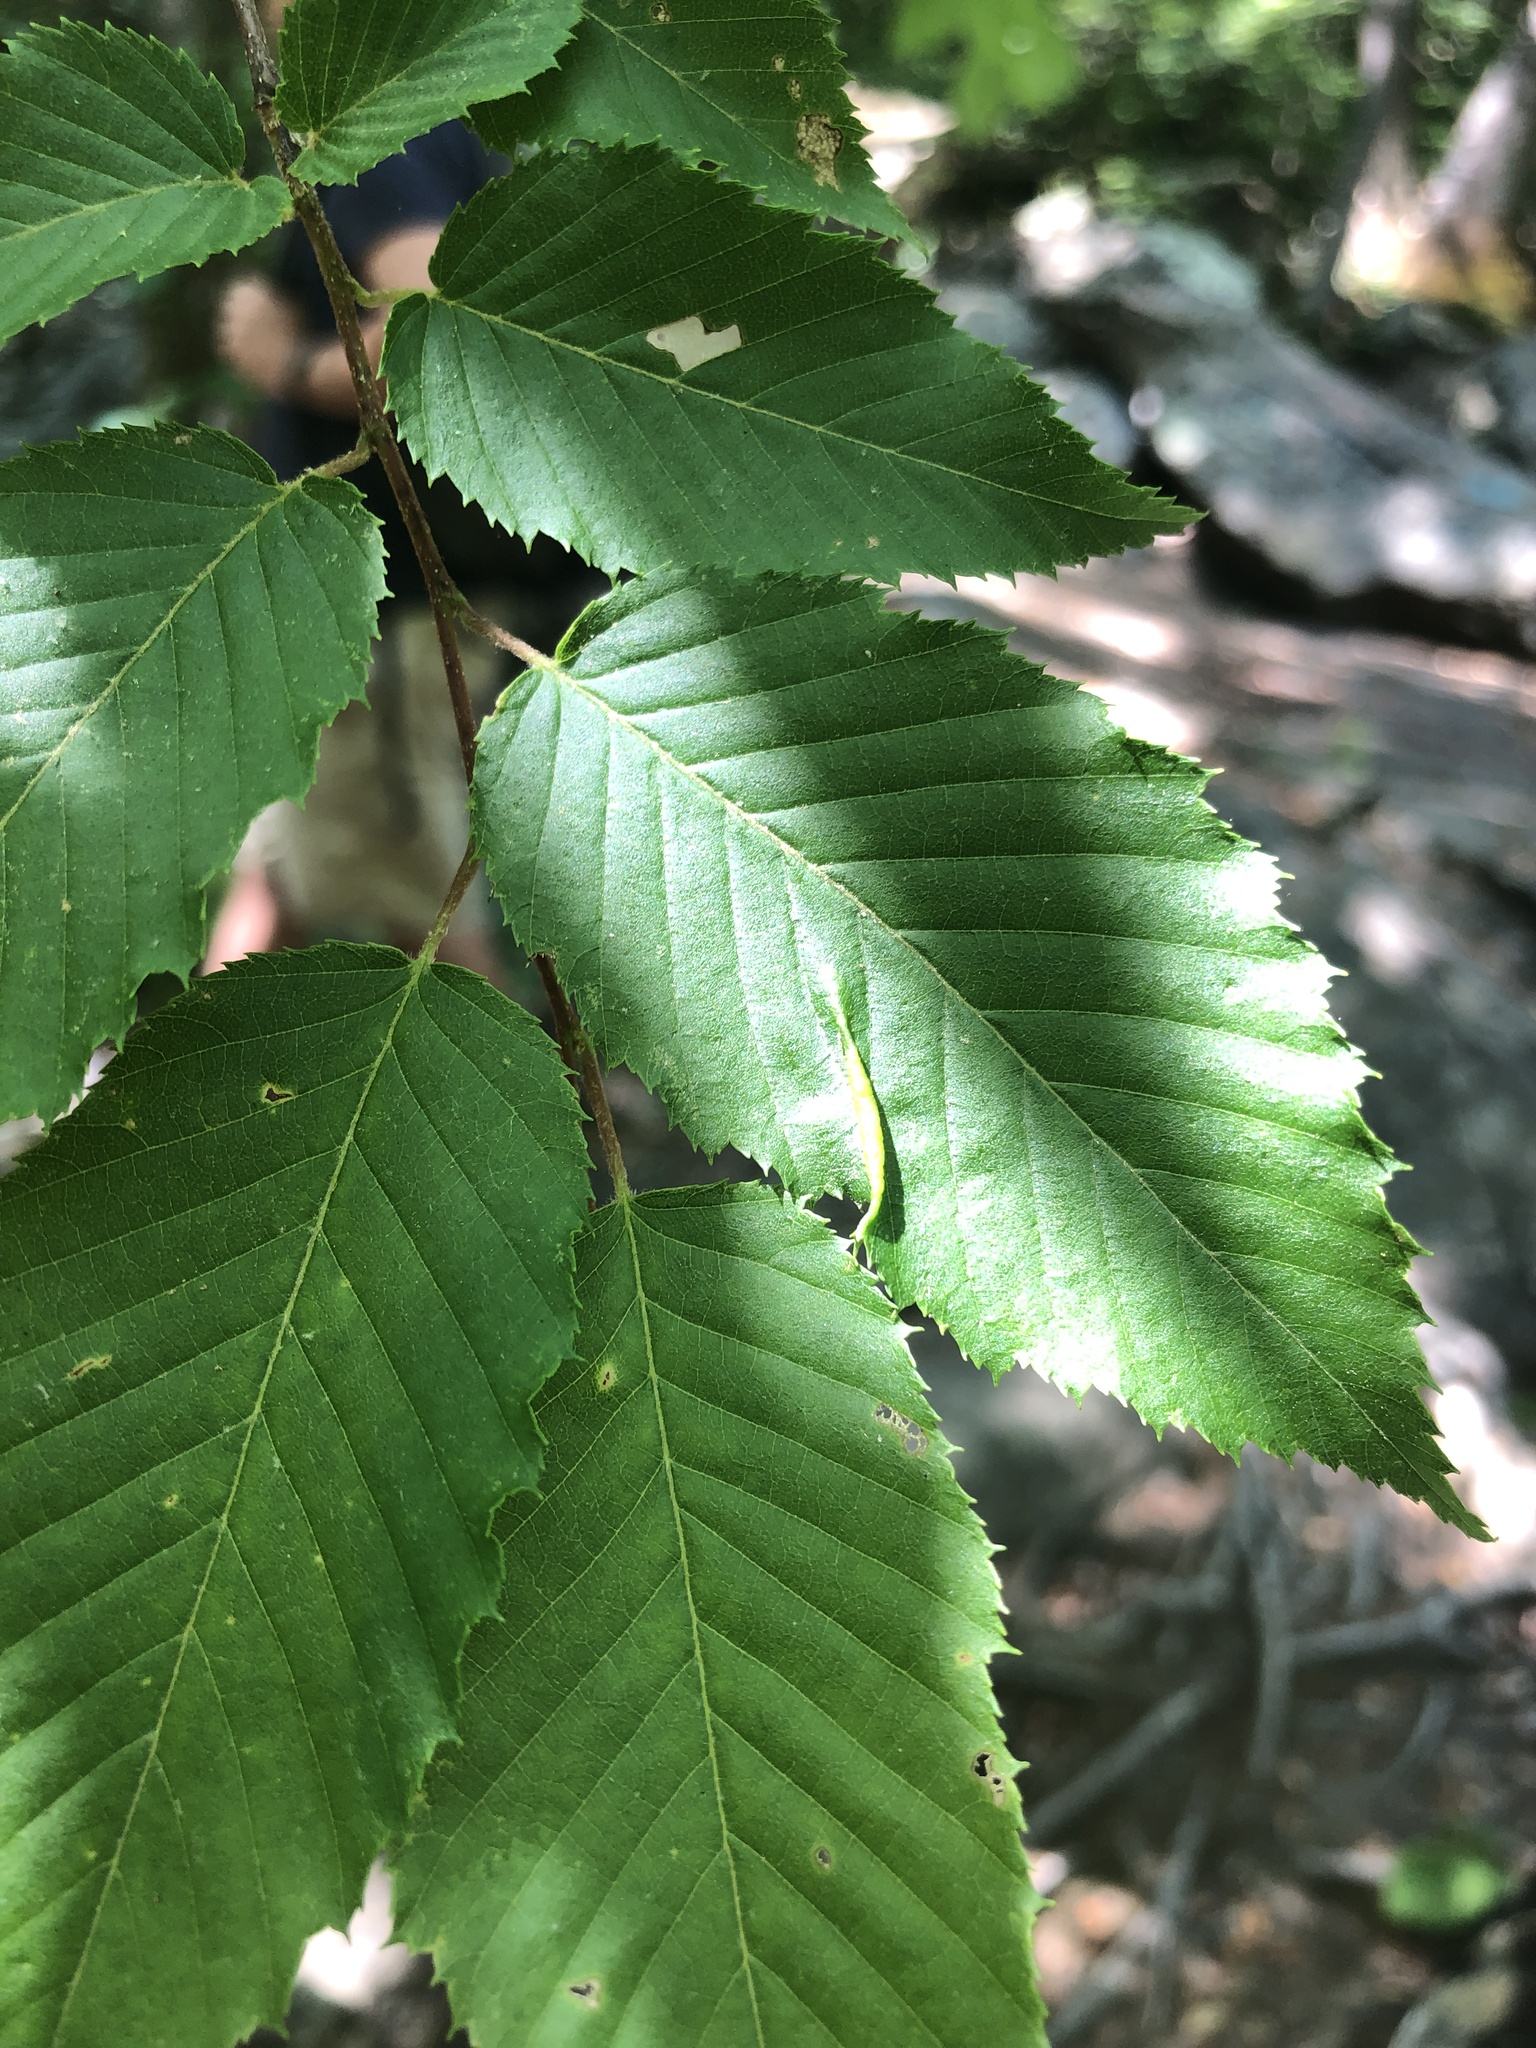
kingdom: Animalia
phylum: Arthropoda
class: Insecta
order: Diptera
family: Cecidomyiidae
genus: Dasineura
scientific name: Dasineura pudibunda
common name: Hornbeam leaf gall midge
